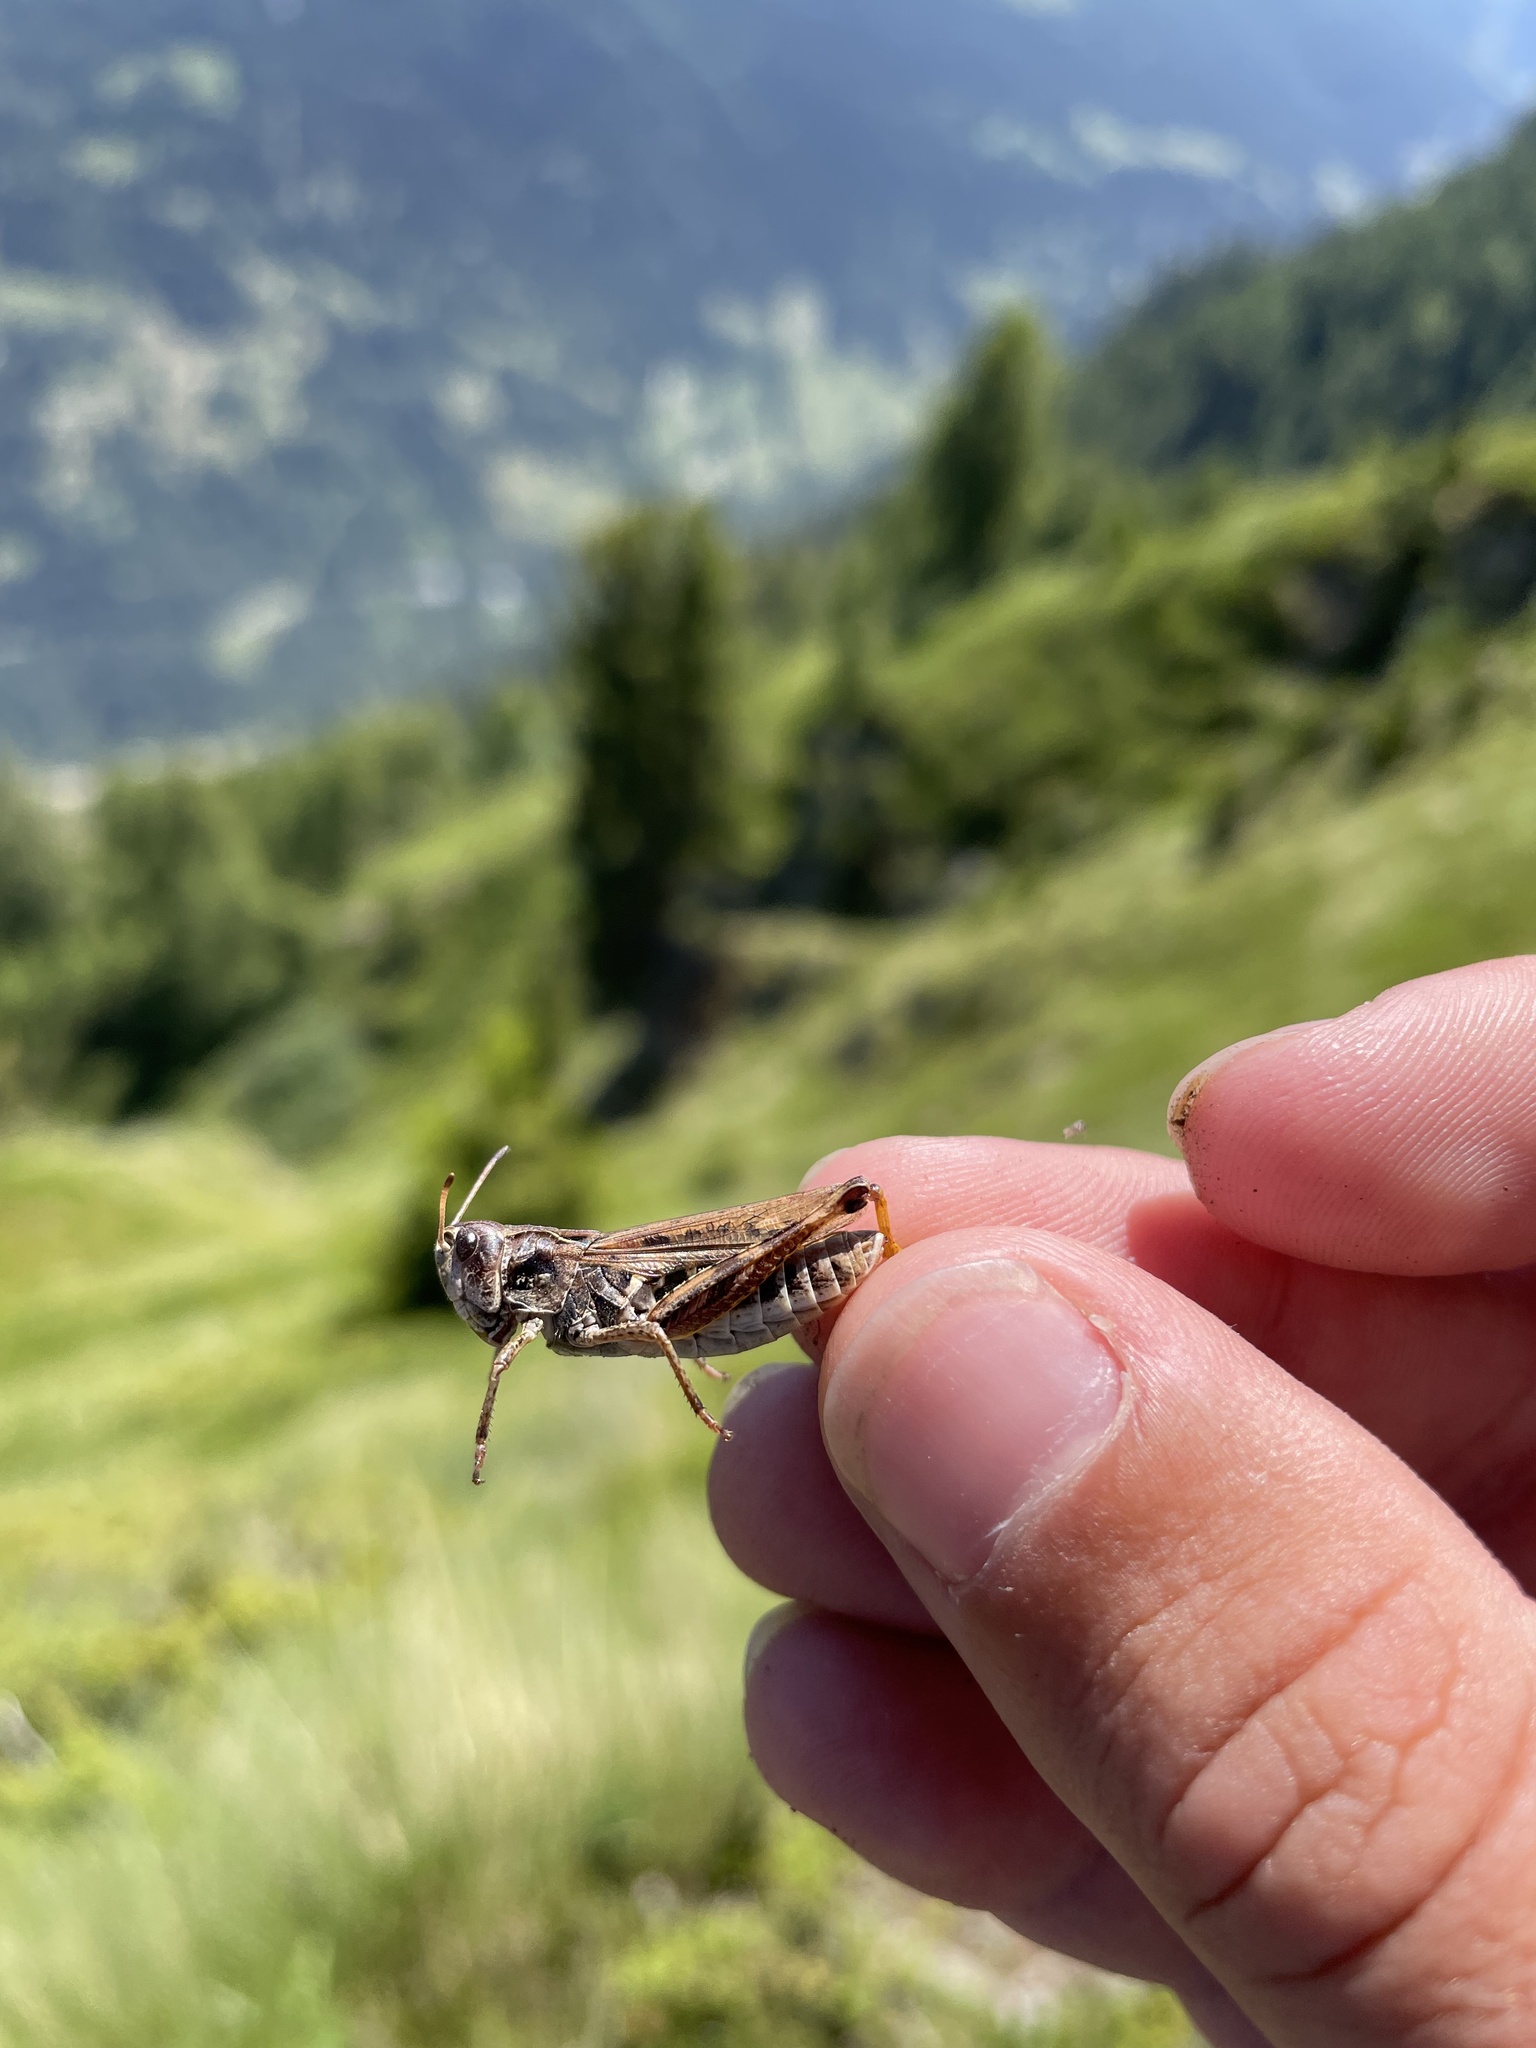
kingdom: Animalia
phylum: Arthropoda
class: Insecta
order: Orthoptera
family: Acrididae
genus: Gomphocerus
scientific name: Gomphocerus sibiricus
